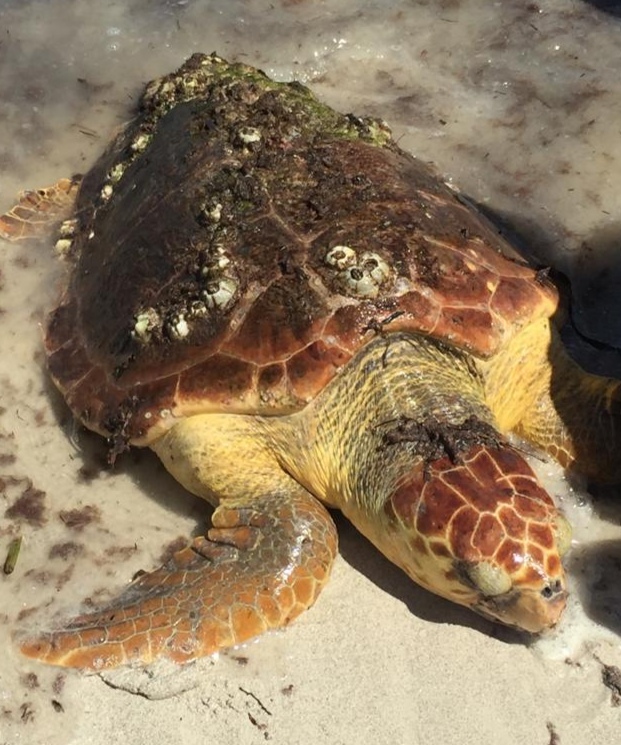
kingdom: Animalia
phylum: Chordata
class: Testudines
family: Cheloniidae
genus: Caretta
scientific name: Caretta caretta
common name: Loggerhead sea turtle
